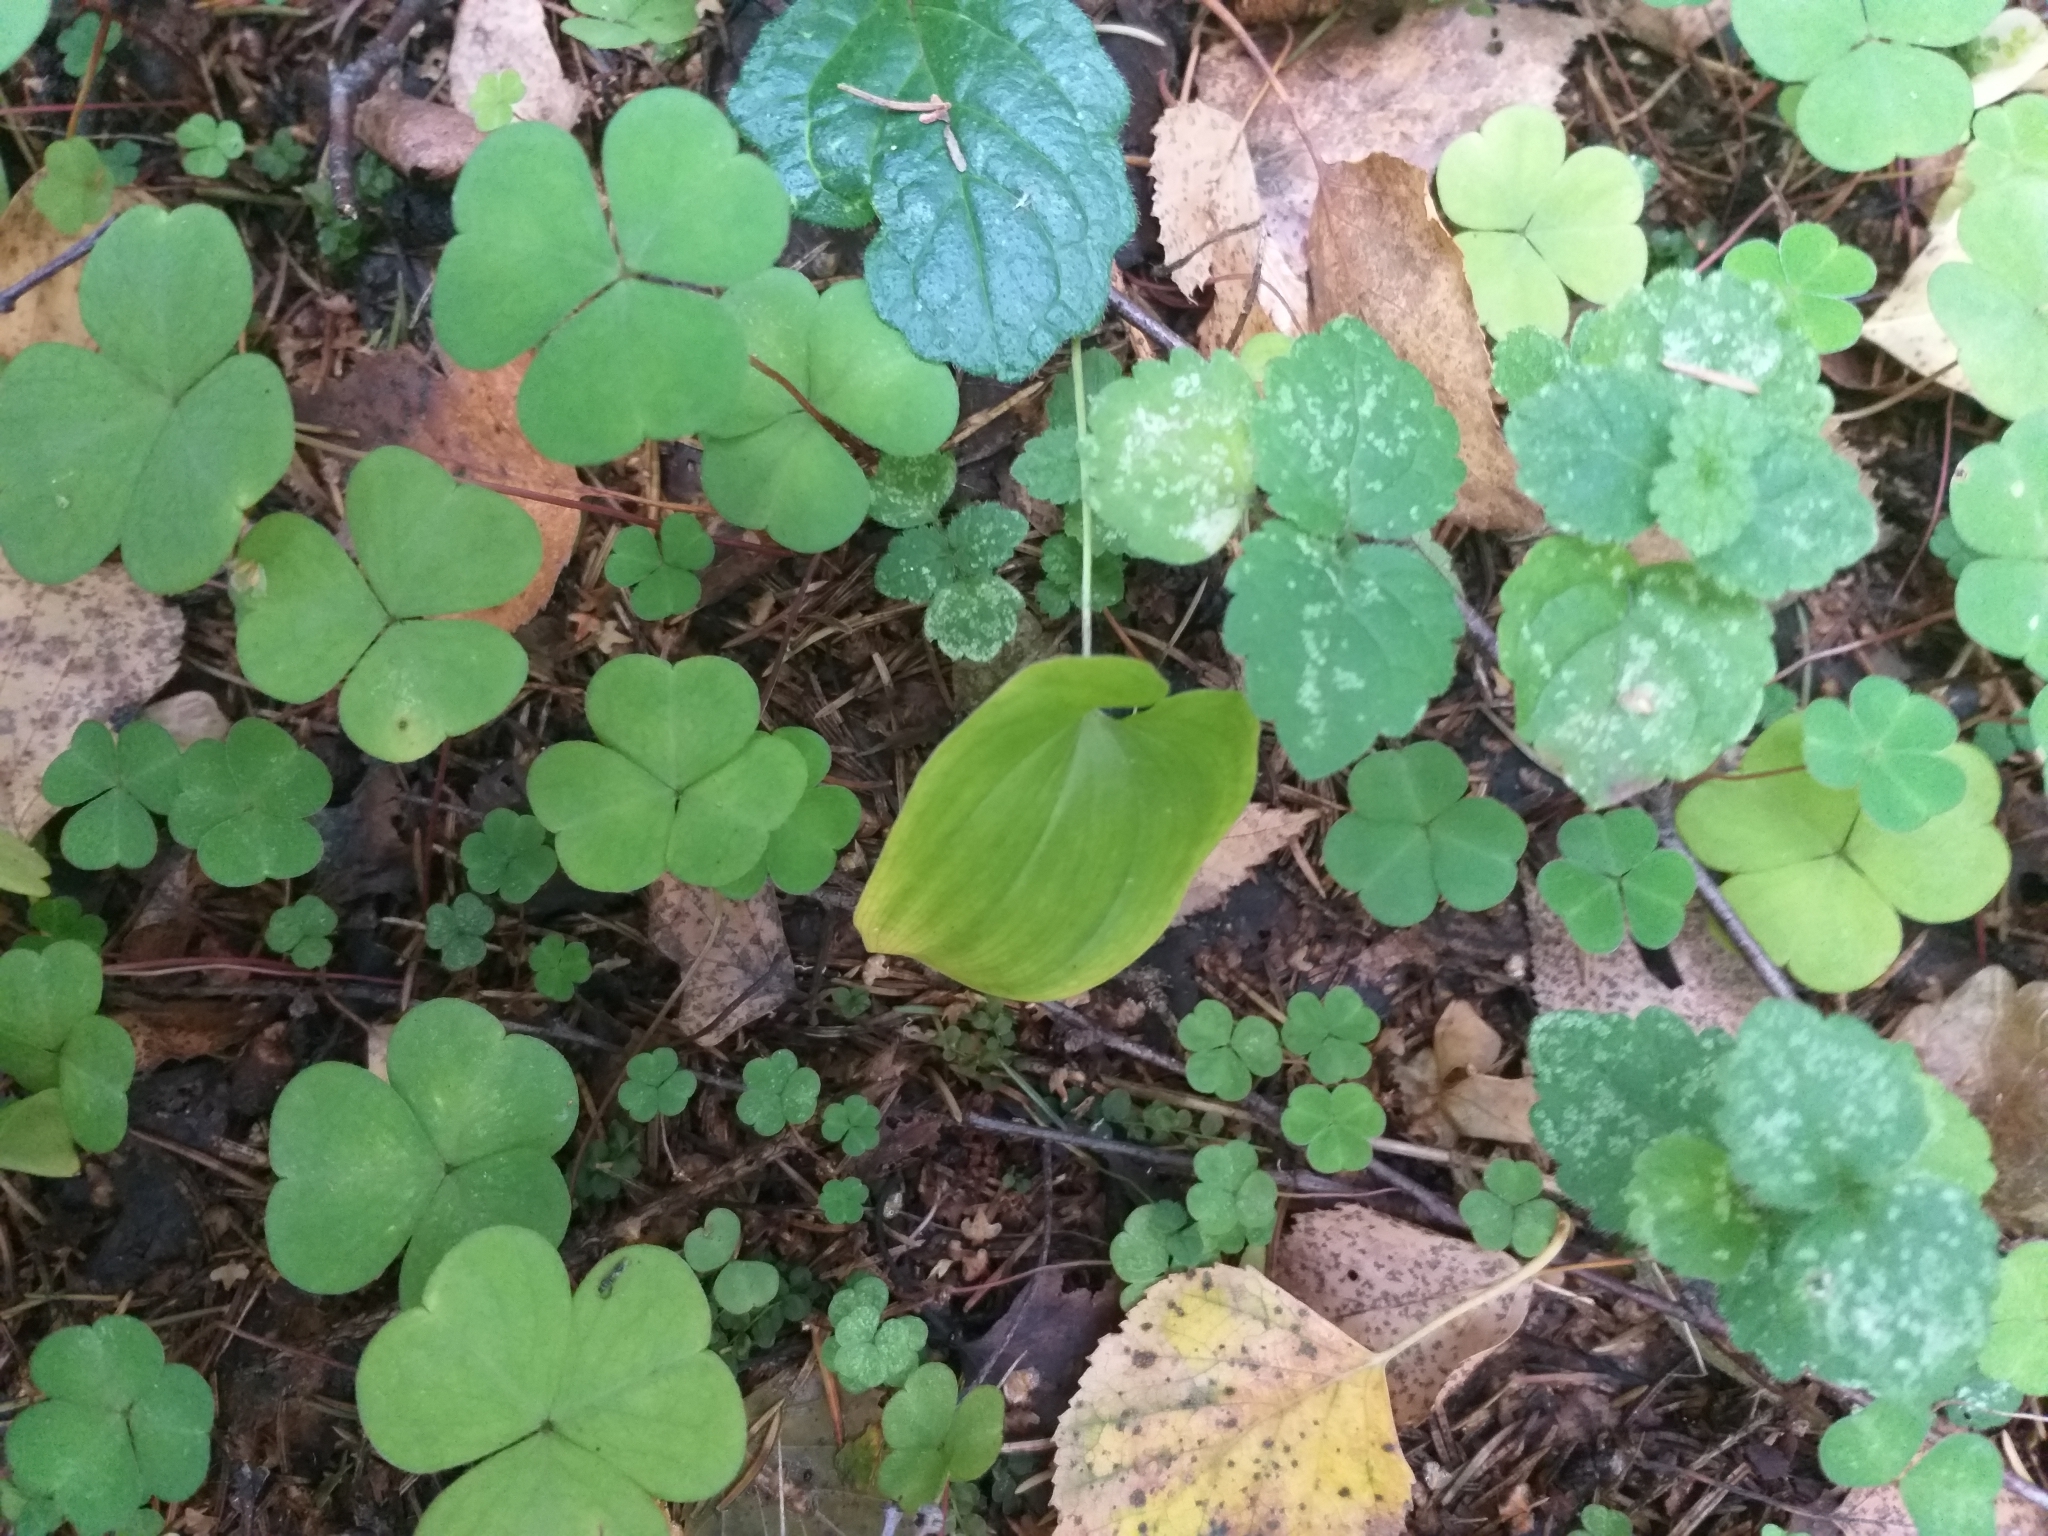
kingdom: Plantae
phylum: Tracheophyta
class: Liliopsida
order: Asparagales
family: Asparagaceae
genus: Maianthemum
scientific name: Maianthemum bifolium
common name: May lily
